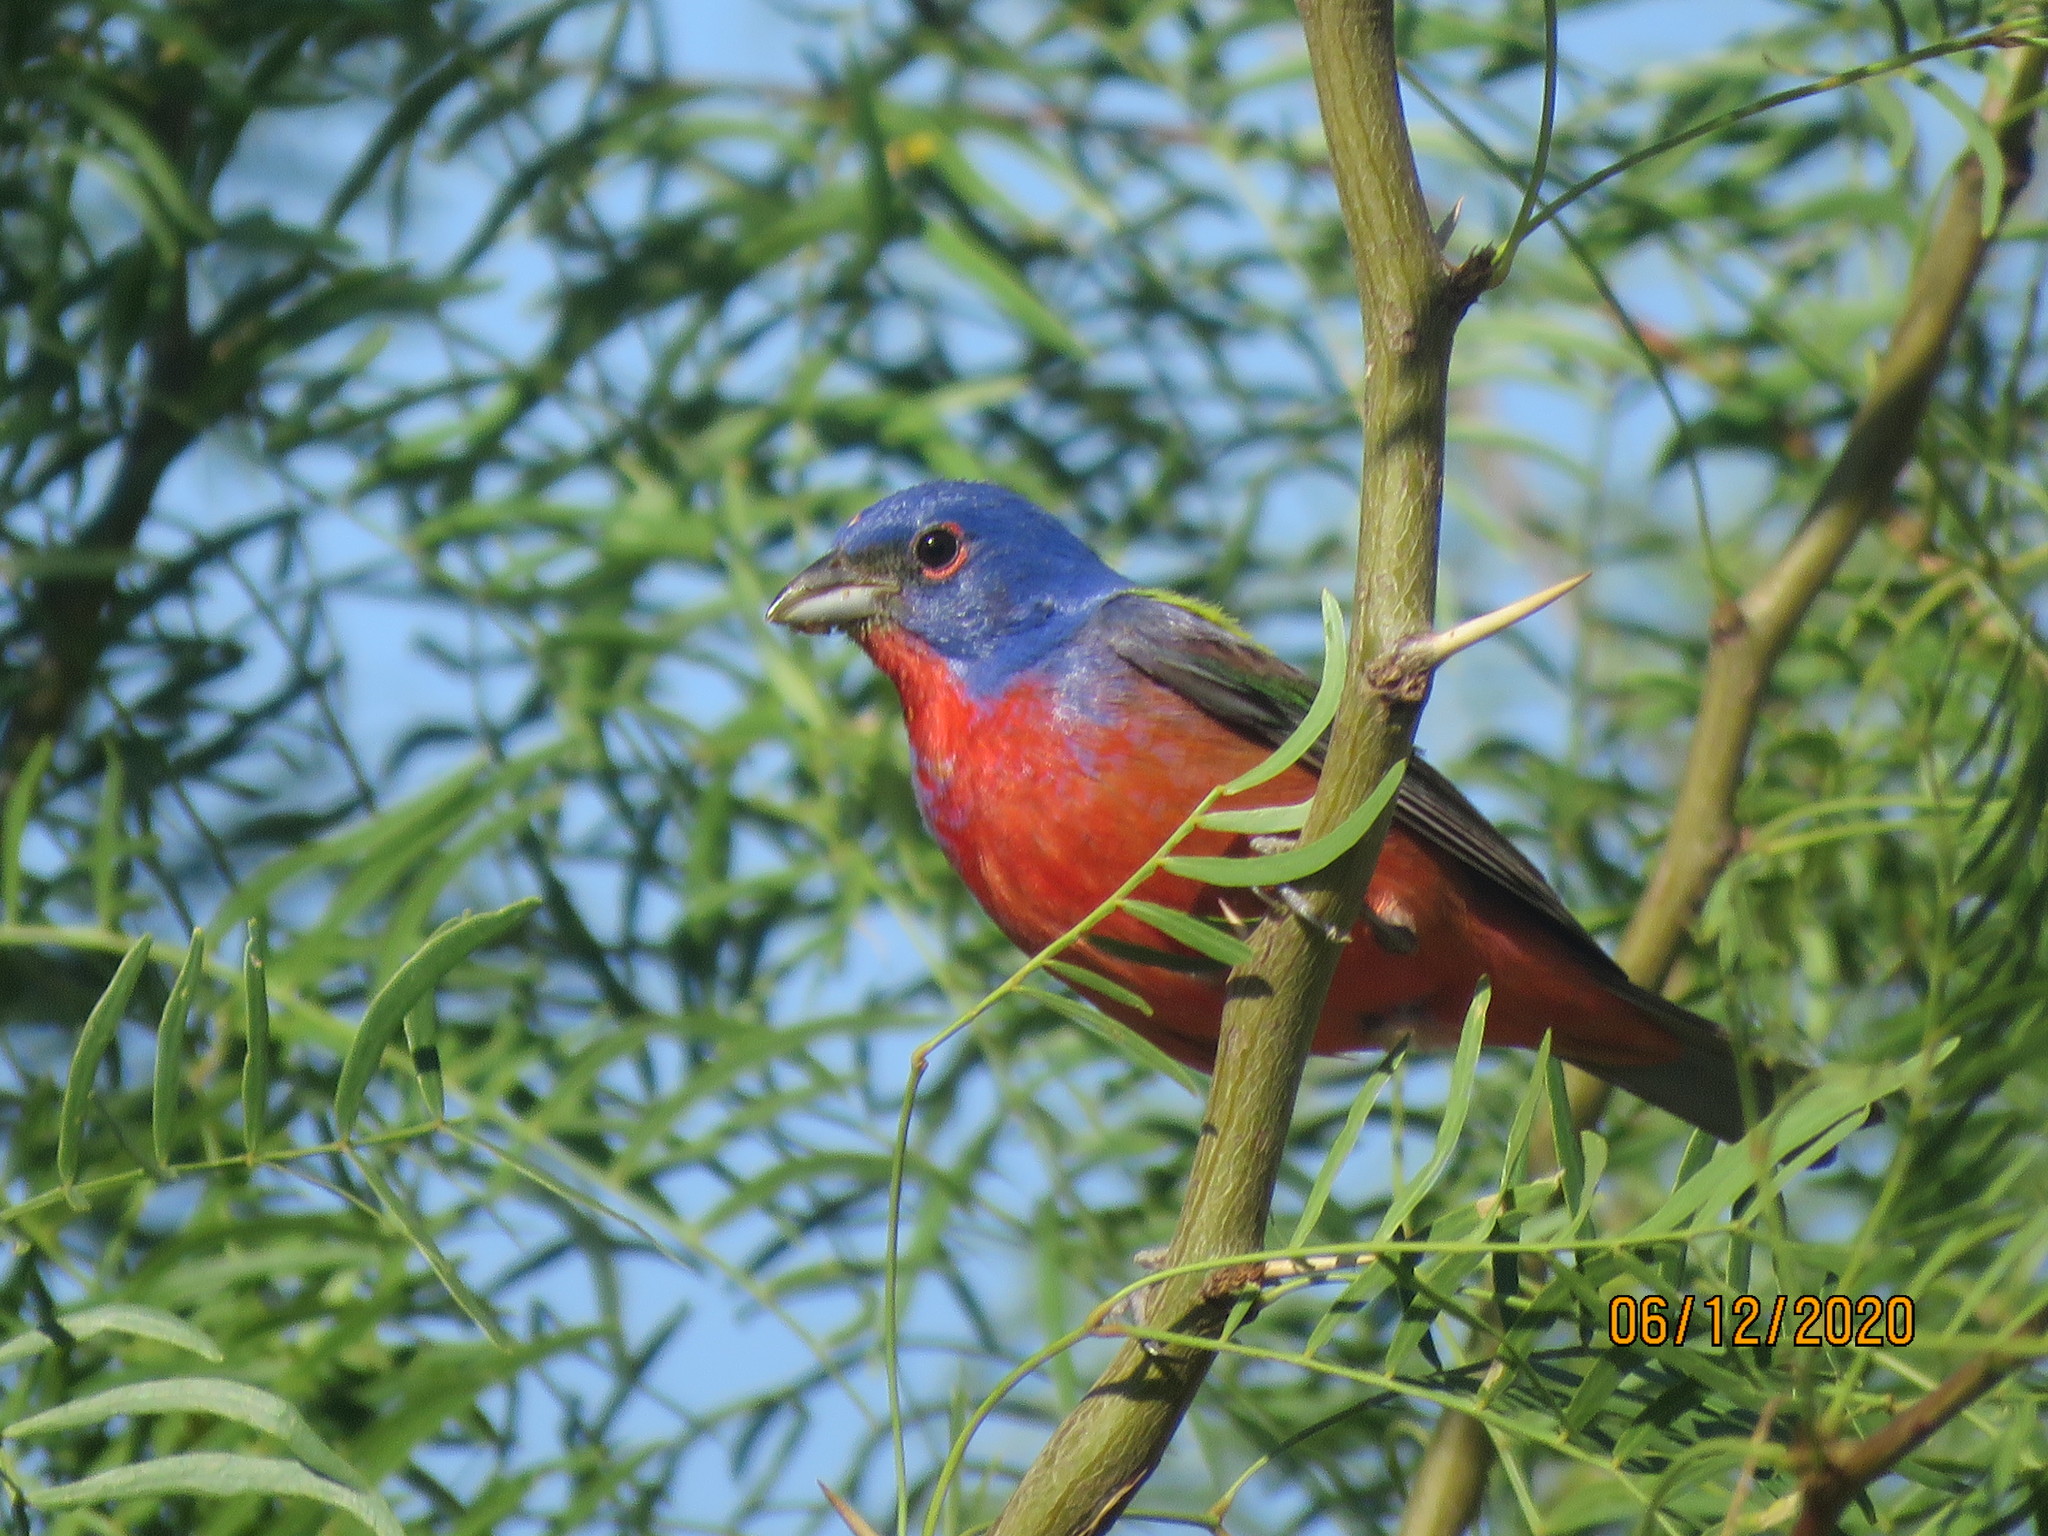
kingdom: Animalia
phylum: Chordata
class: Aves
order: Passeriformes
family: Cardinalidae
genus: Passerina
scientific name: Passerina ciris
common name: Painted bunting
